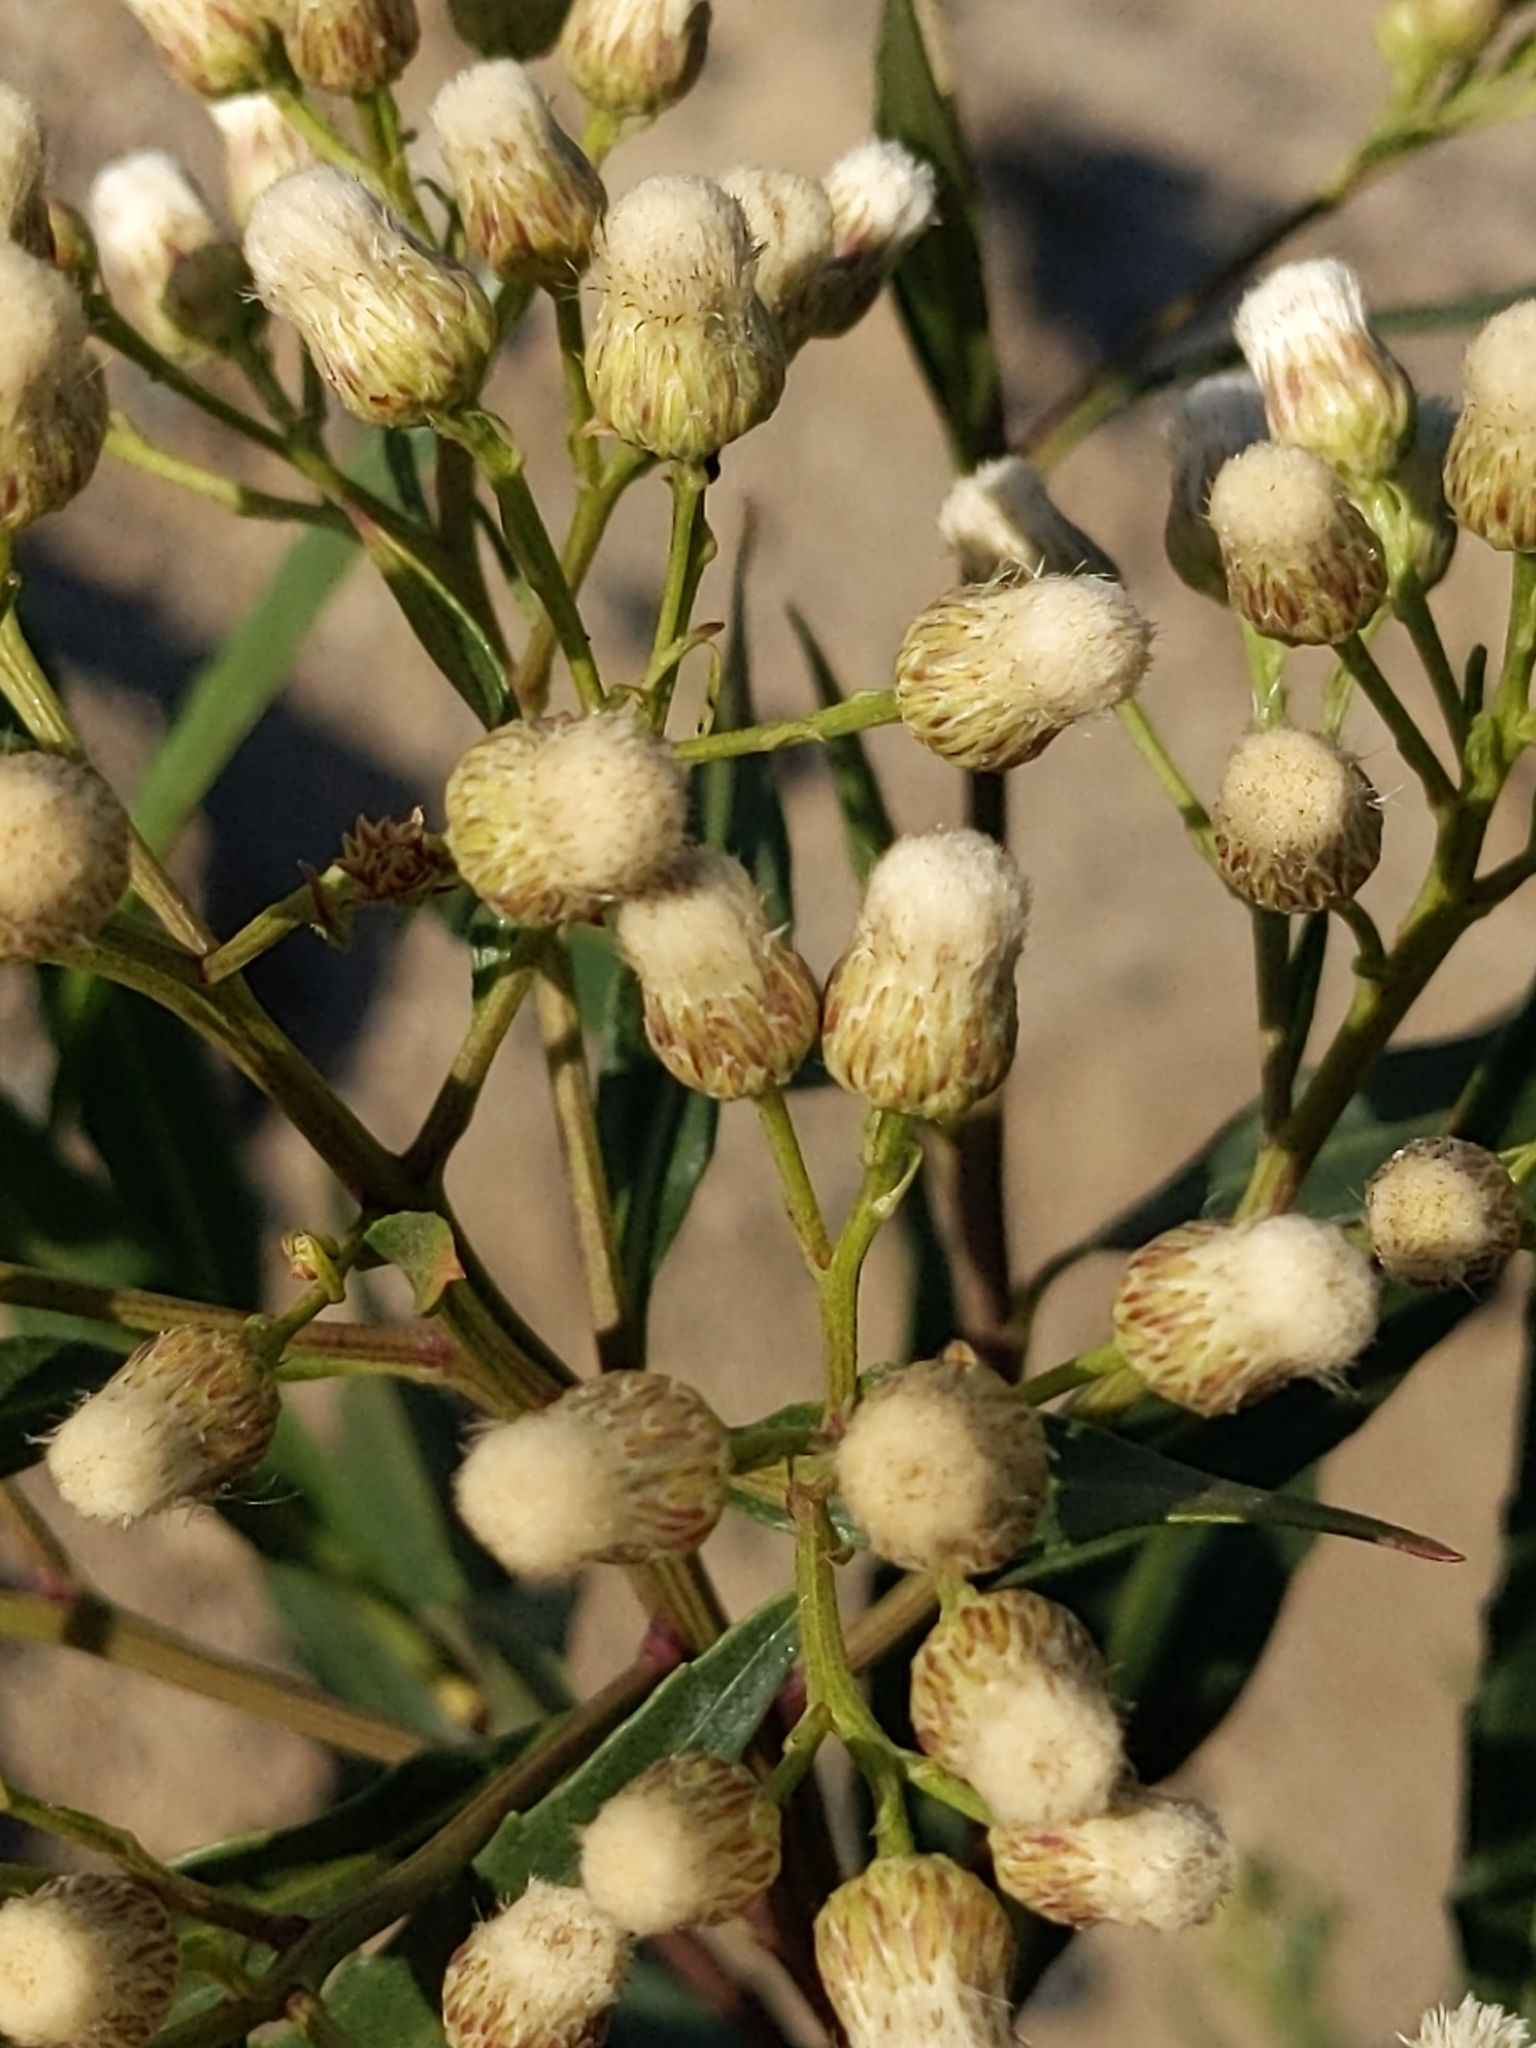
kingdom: Plantae
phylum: Tracheophyta
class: Magnoliopsida
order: Asterales
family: Asteraceae
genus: Baccharis
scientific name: Baccharis salicifolia
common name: Sticky baccharis
